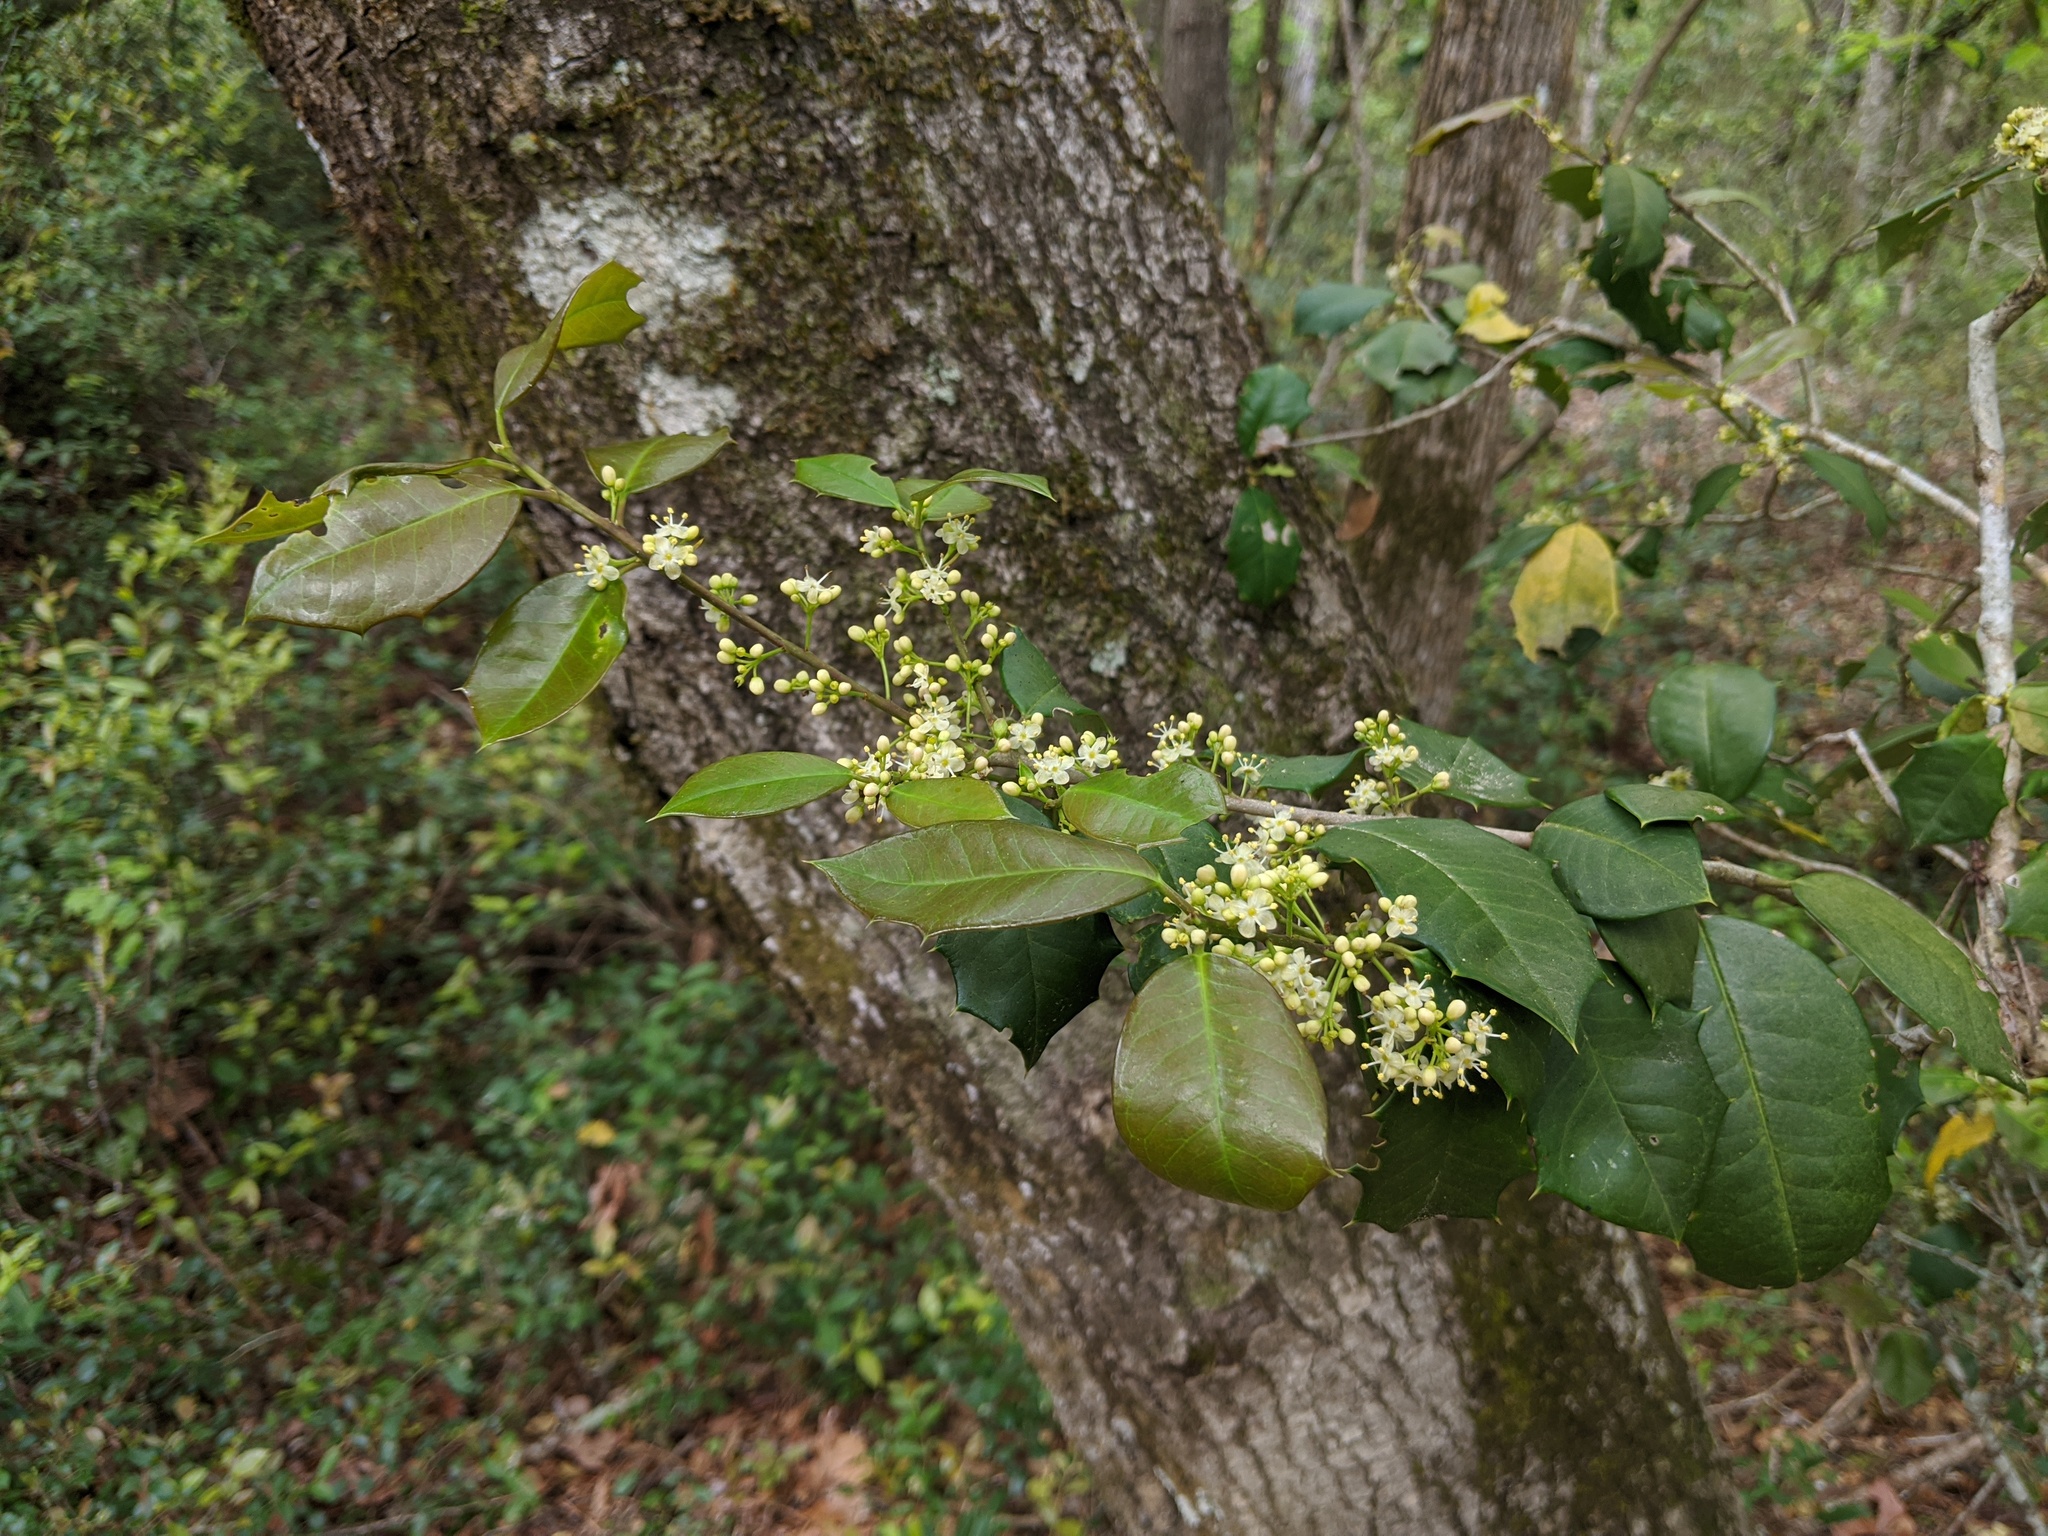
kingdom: Plantae
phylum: Tracheophyta
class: Magnoliopsida
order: Aquifoliales
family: Aquifoliaceae
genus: Ilex
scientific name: Ilex opaca
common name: American holly
